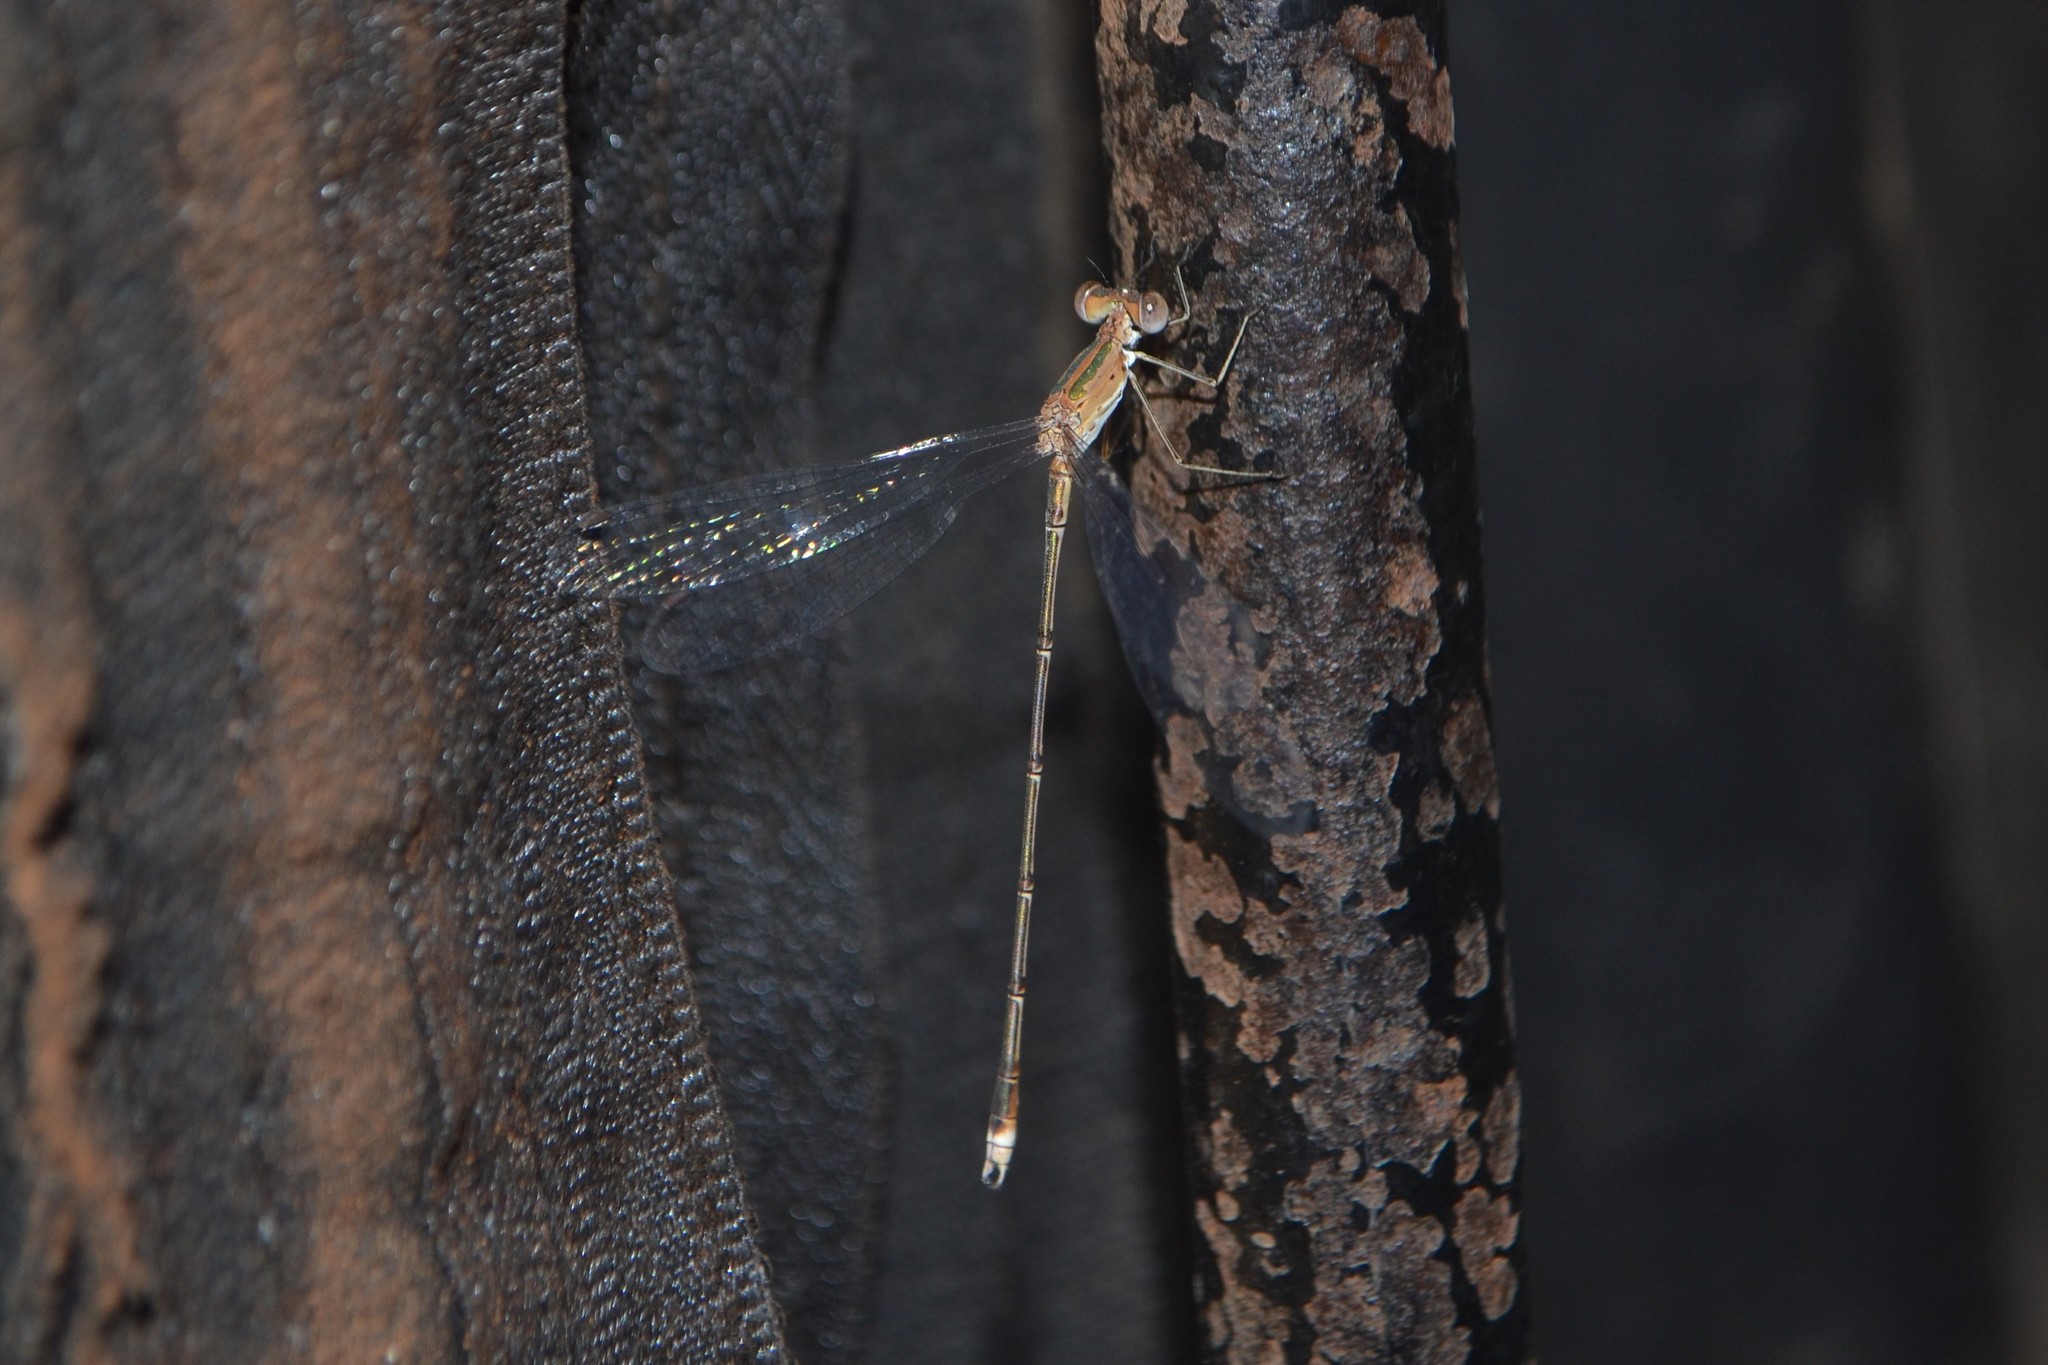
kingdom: Animalia
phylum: Arthropoda
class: Insecta
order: Odonata
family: Lestidae
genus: Lestes
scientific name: Lestes elatus
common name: Emerald spreadwing
